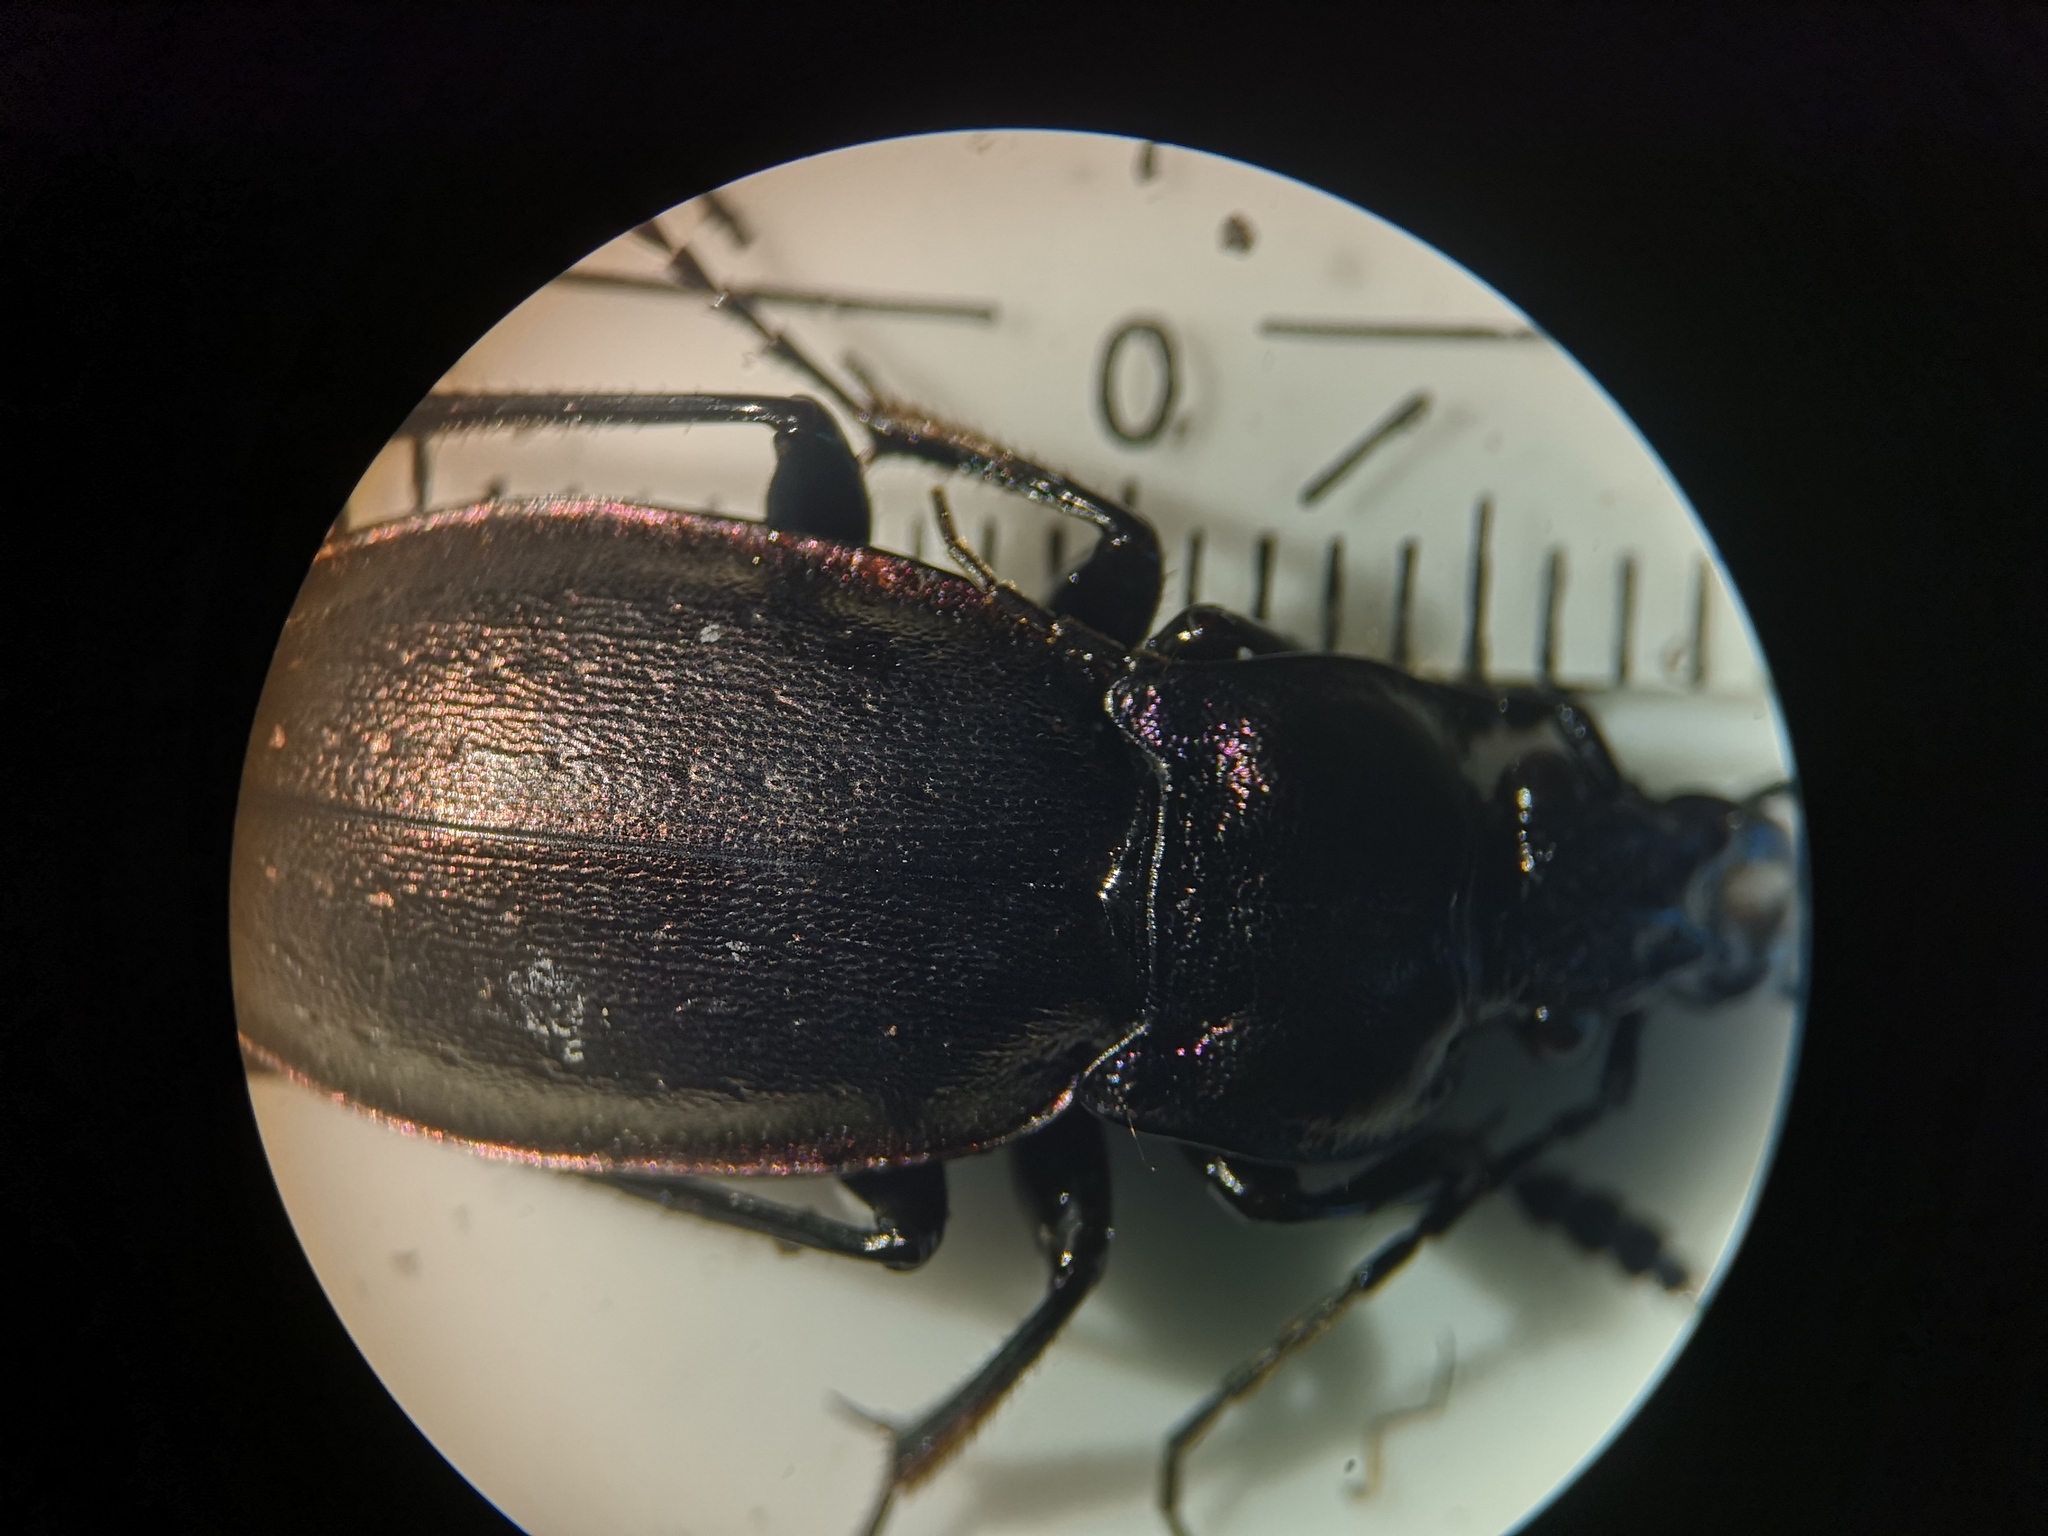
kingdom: Animalia
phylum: Arthropoda
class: Insecta
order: Coleoptera
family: Carabidae
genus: Carabus
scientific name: Carabus nemoralis
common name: European ground beetle
